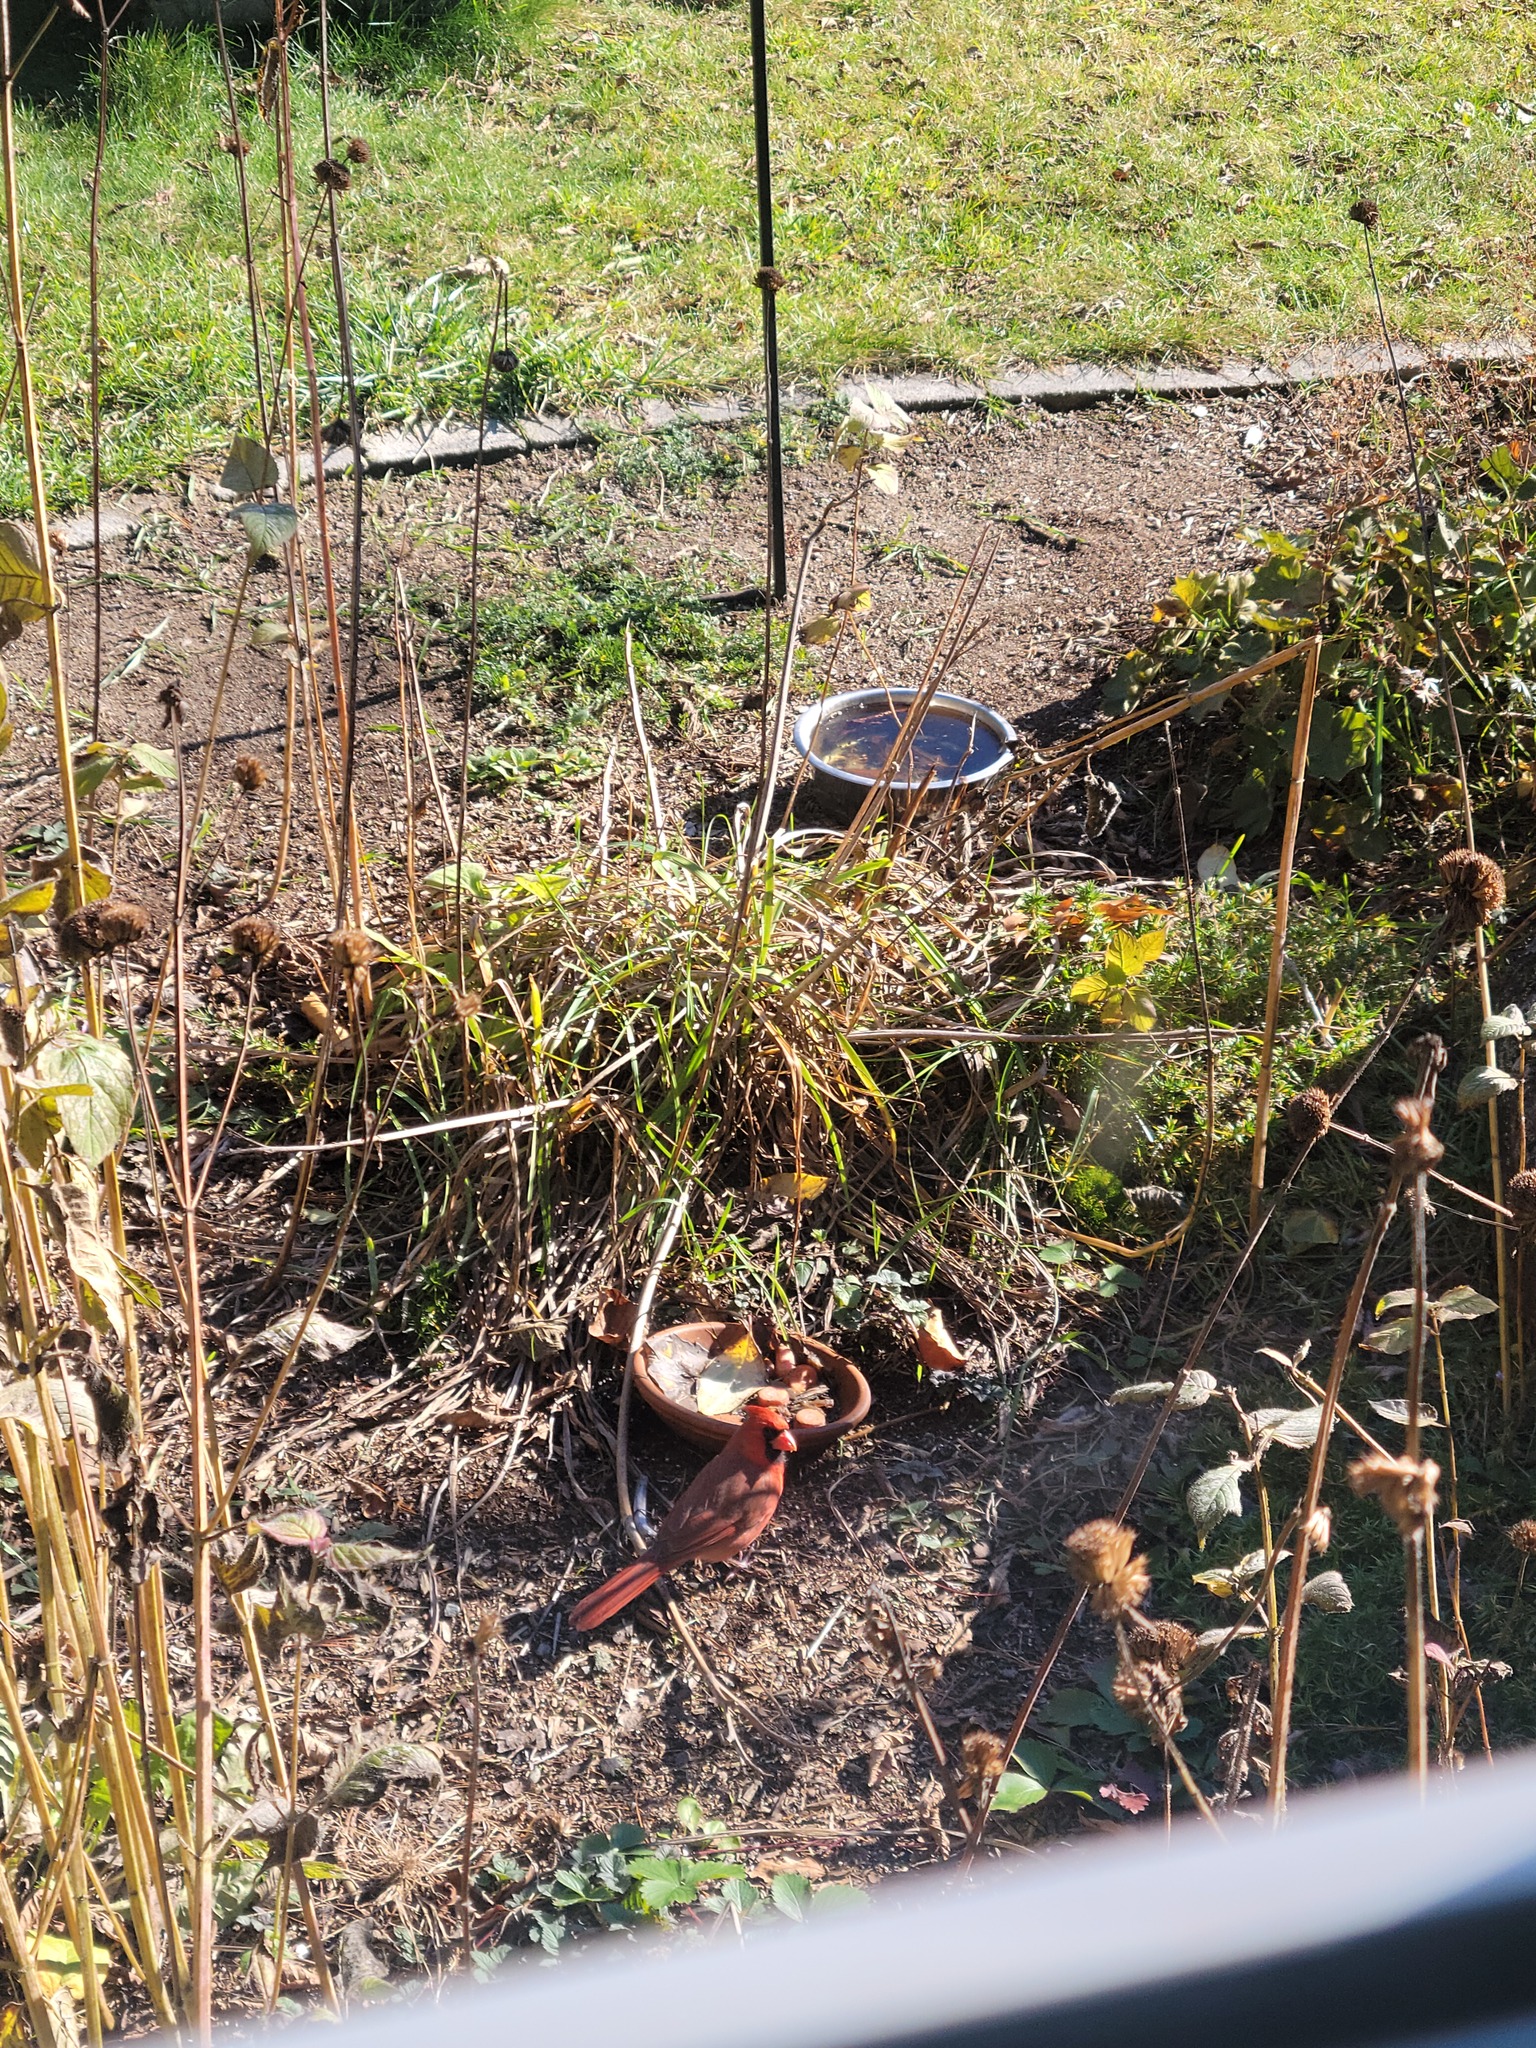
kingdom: Animalia
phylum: Chordata
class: Aves
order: Passeriformes
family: Cardinalidae
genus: Cardinalis
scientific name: Cardinalis cardinalis
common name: Northern cardinal
